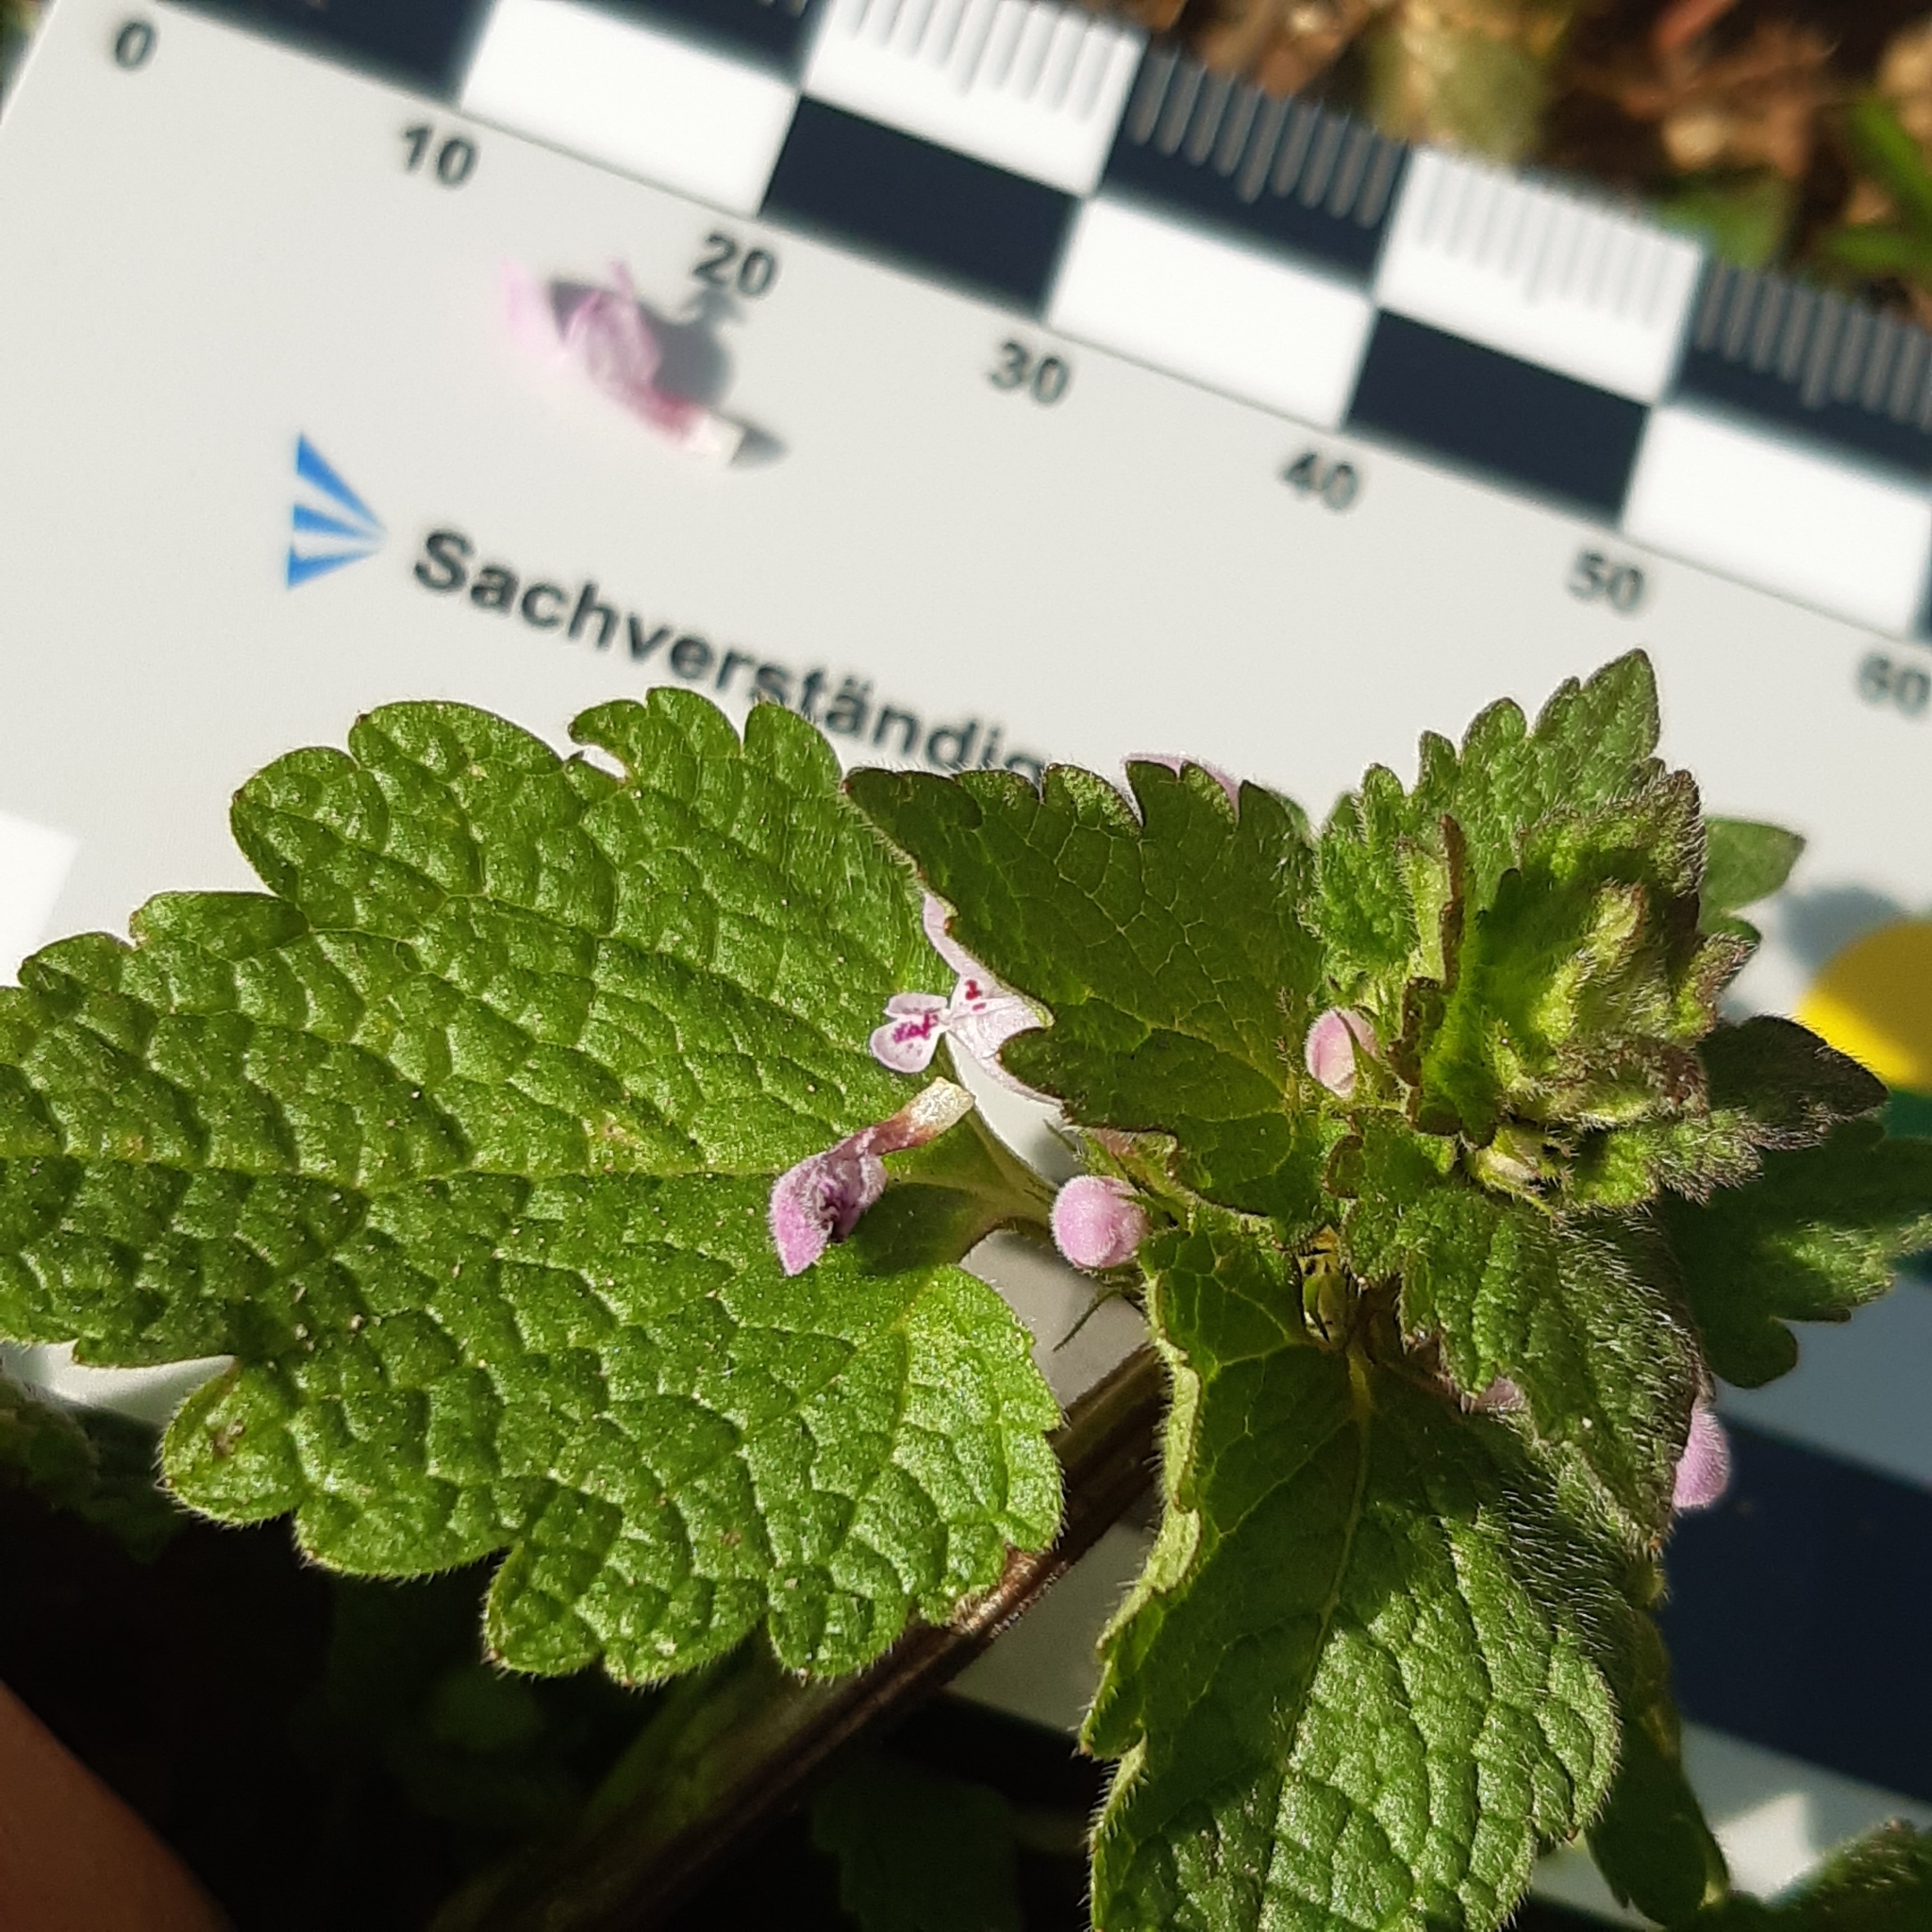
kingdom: Plantae
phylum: Tracheophyta
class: Magnoliopsida
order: Lamiales
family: Lamiaceae
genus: Lamium
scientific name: Lamium purpureum
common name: Red dead-nettle
